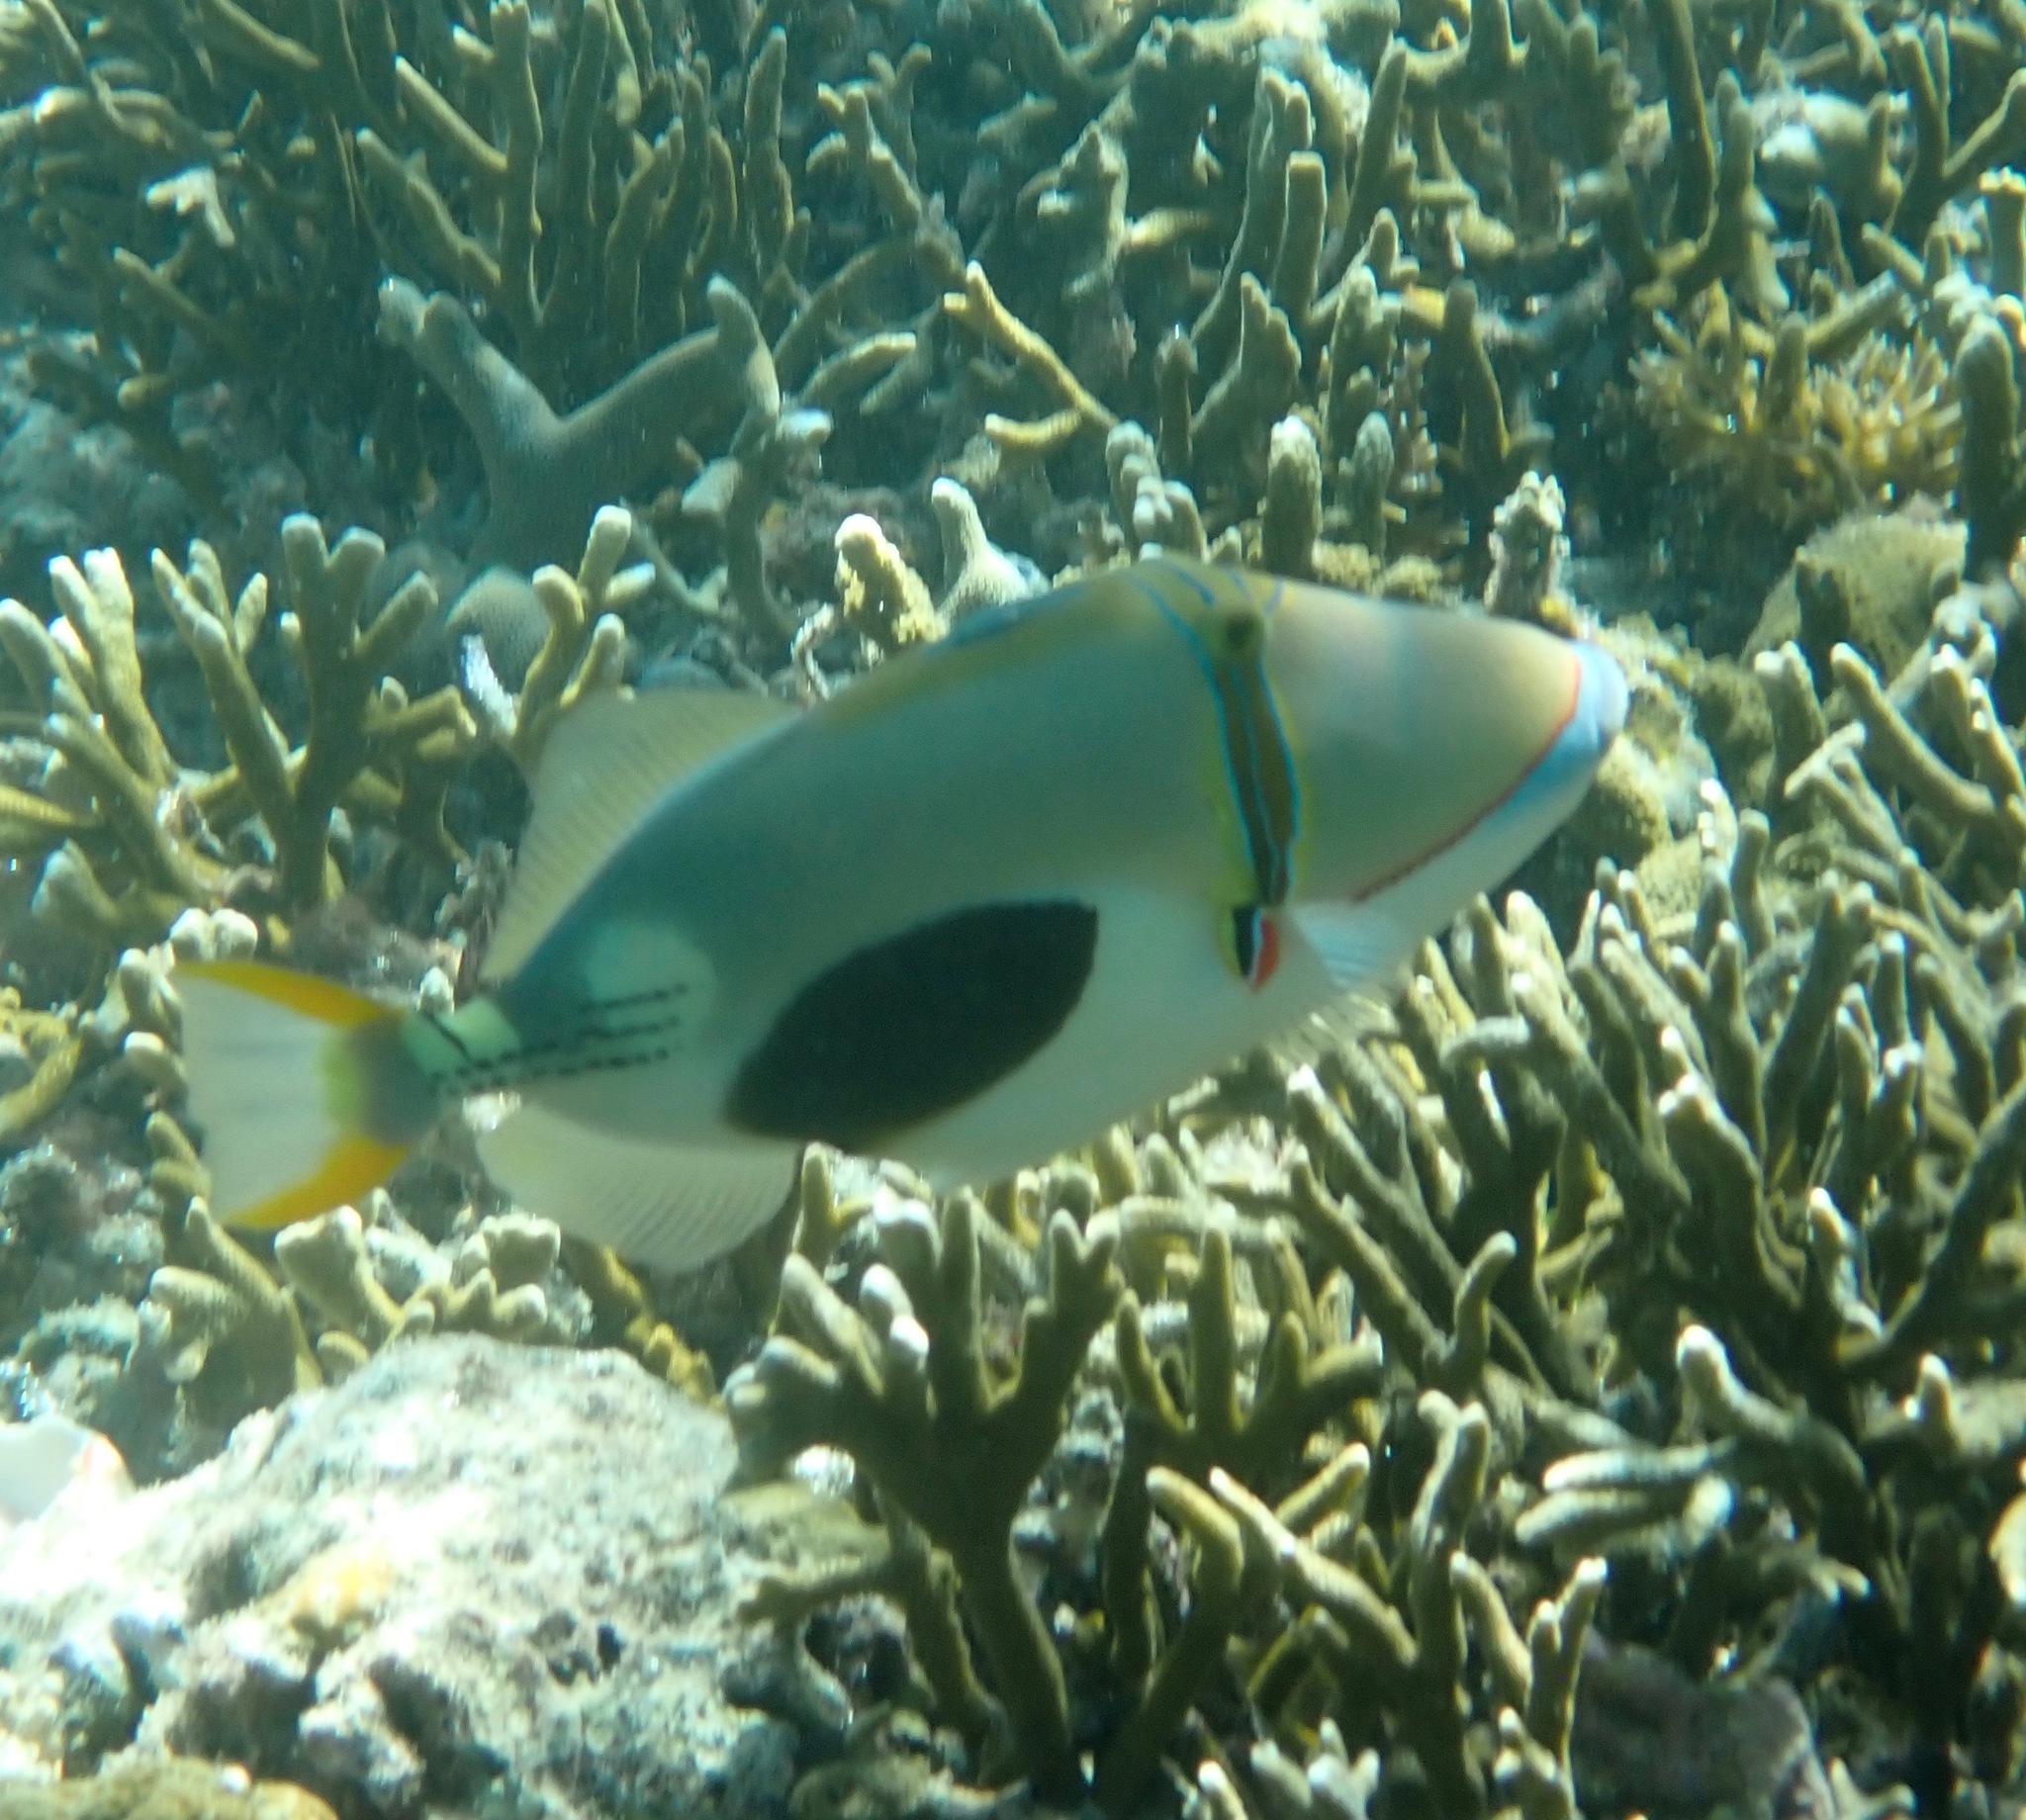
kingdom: Animalia
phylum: Chordata
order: Tetraodontiformes
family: Balistidae
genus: Rhinecanthus
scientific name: Rhinecanthus verrucosus
